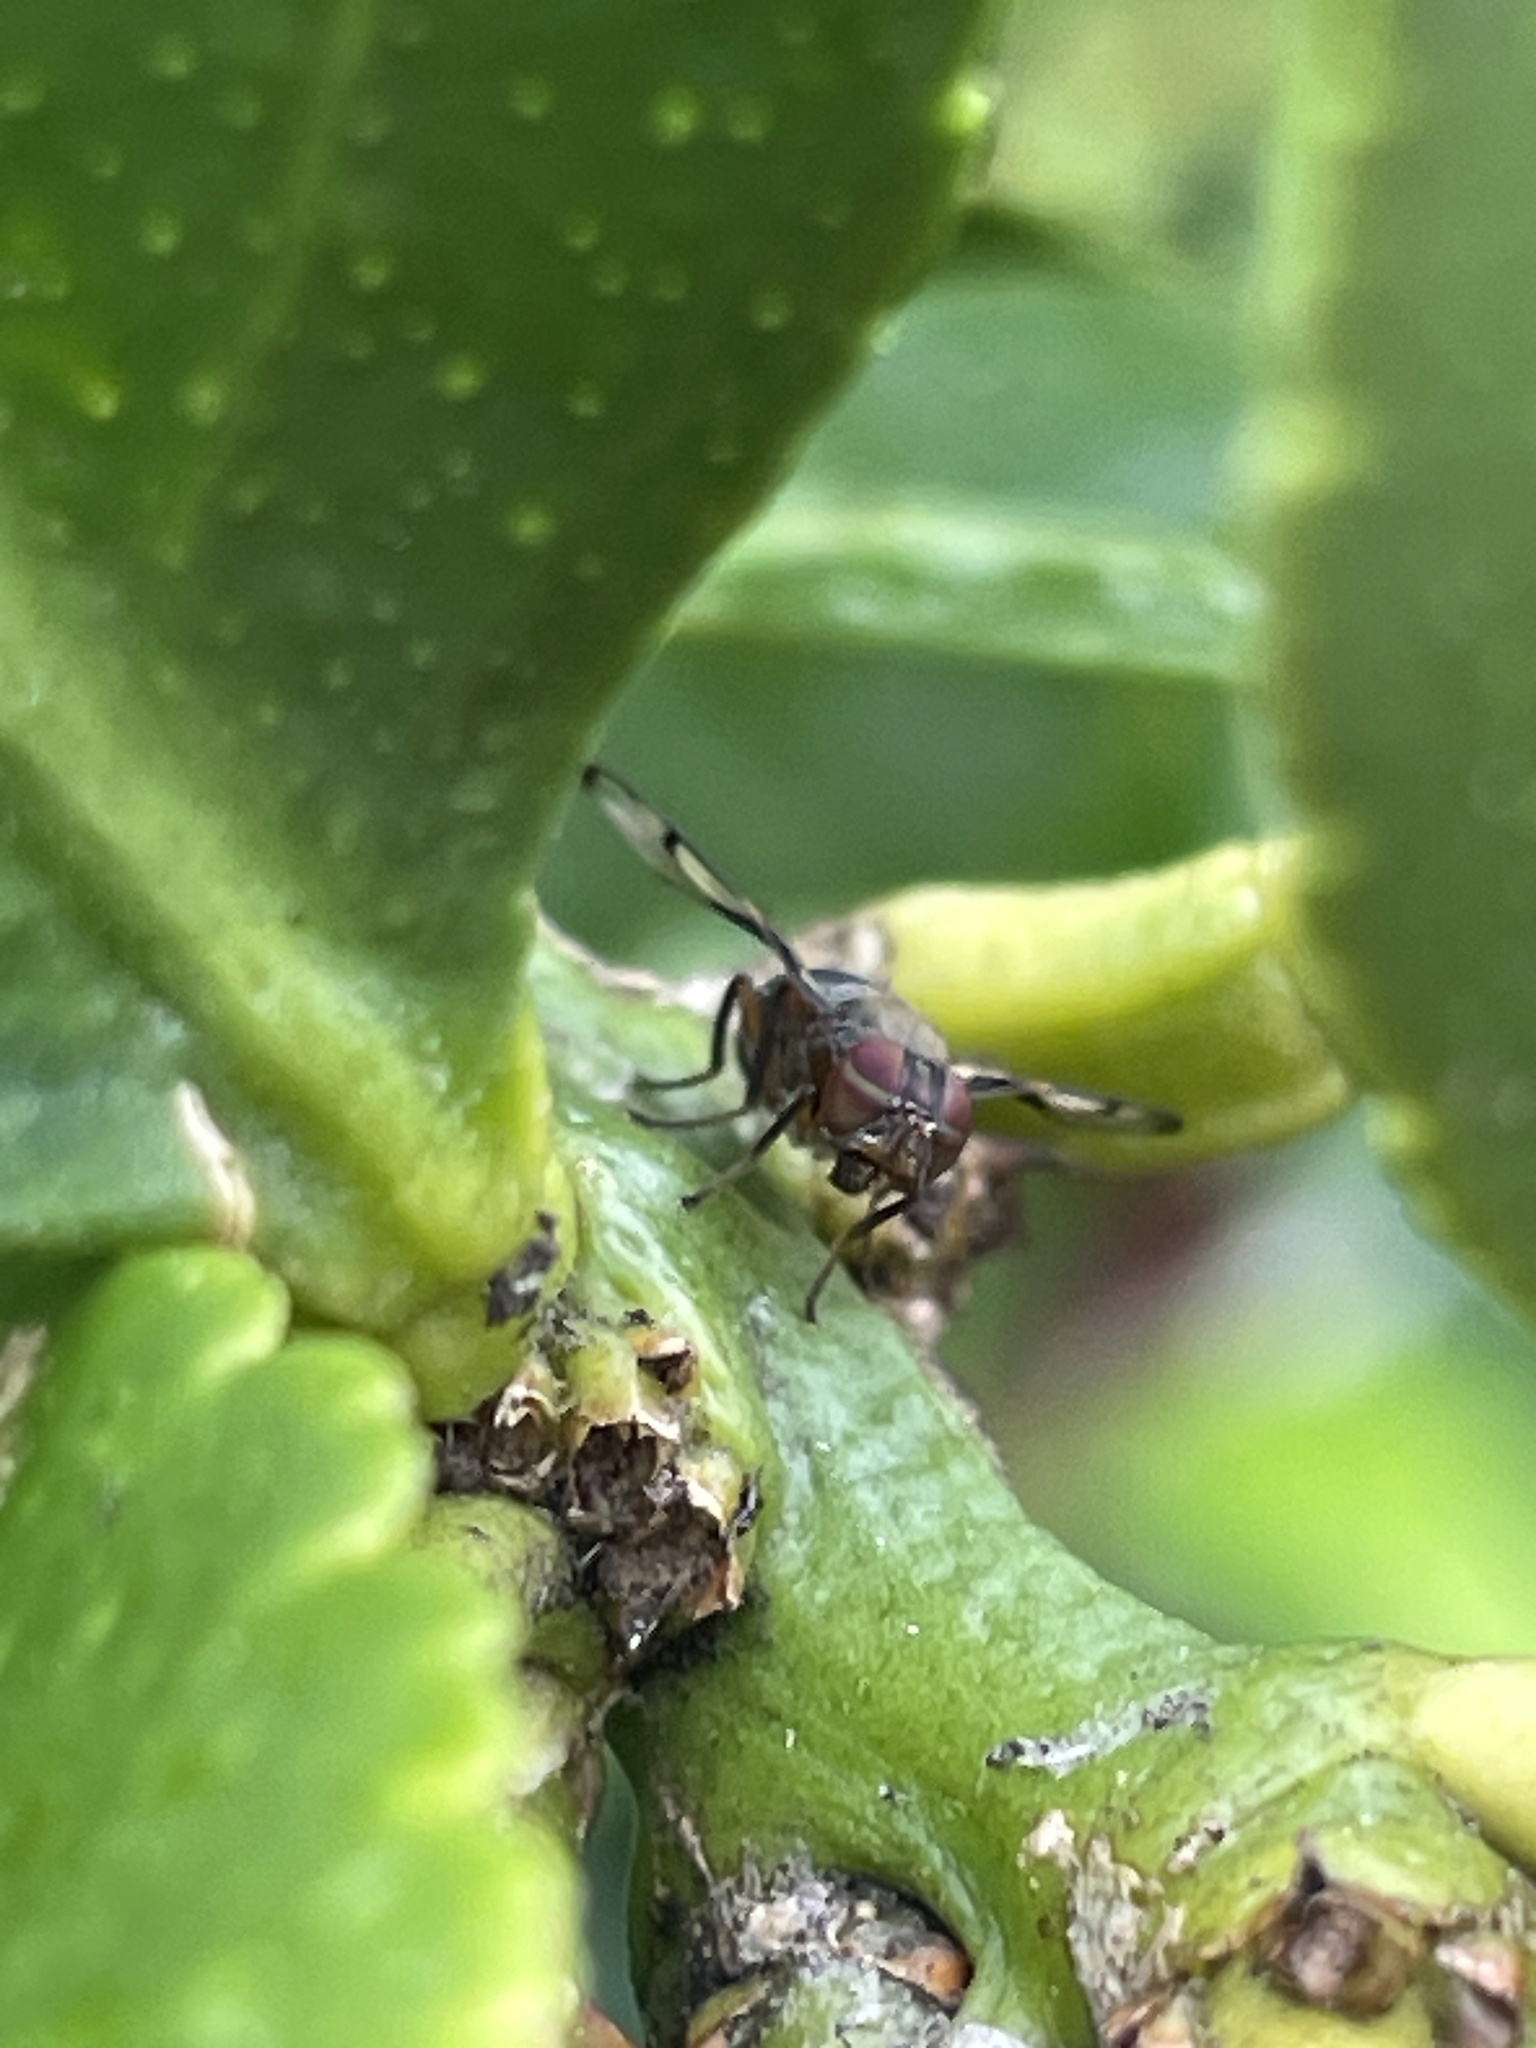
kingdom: Animalia
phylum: Arthropoda
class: Insecta
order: Diptera
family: Platystomatidae
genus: Pogonortalis
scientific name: Pogonortalis doclea
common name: Boatman fly
